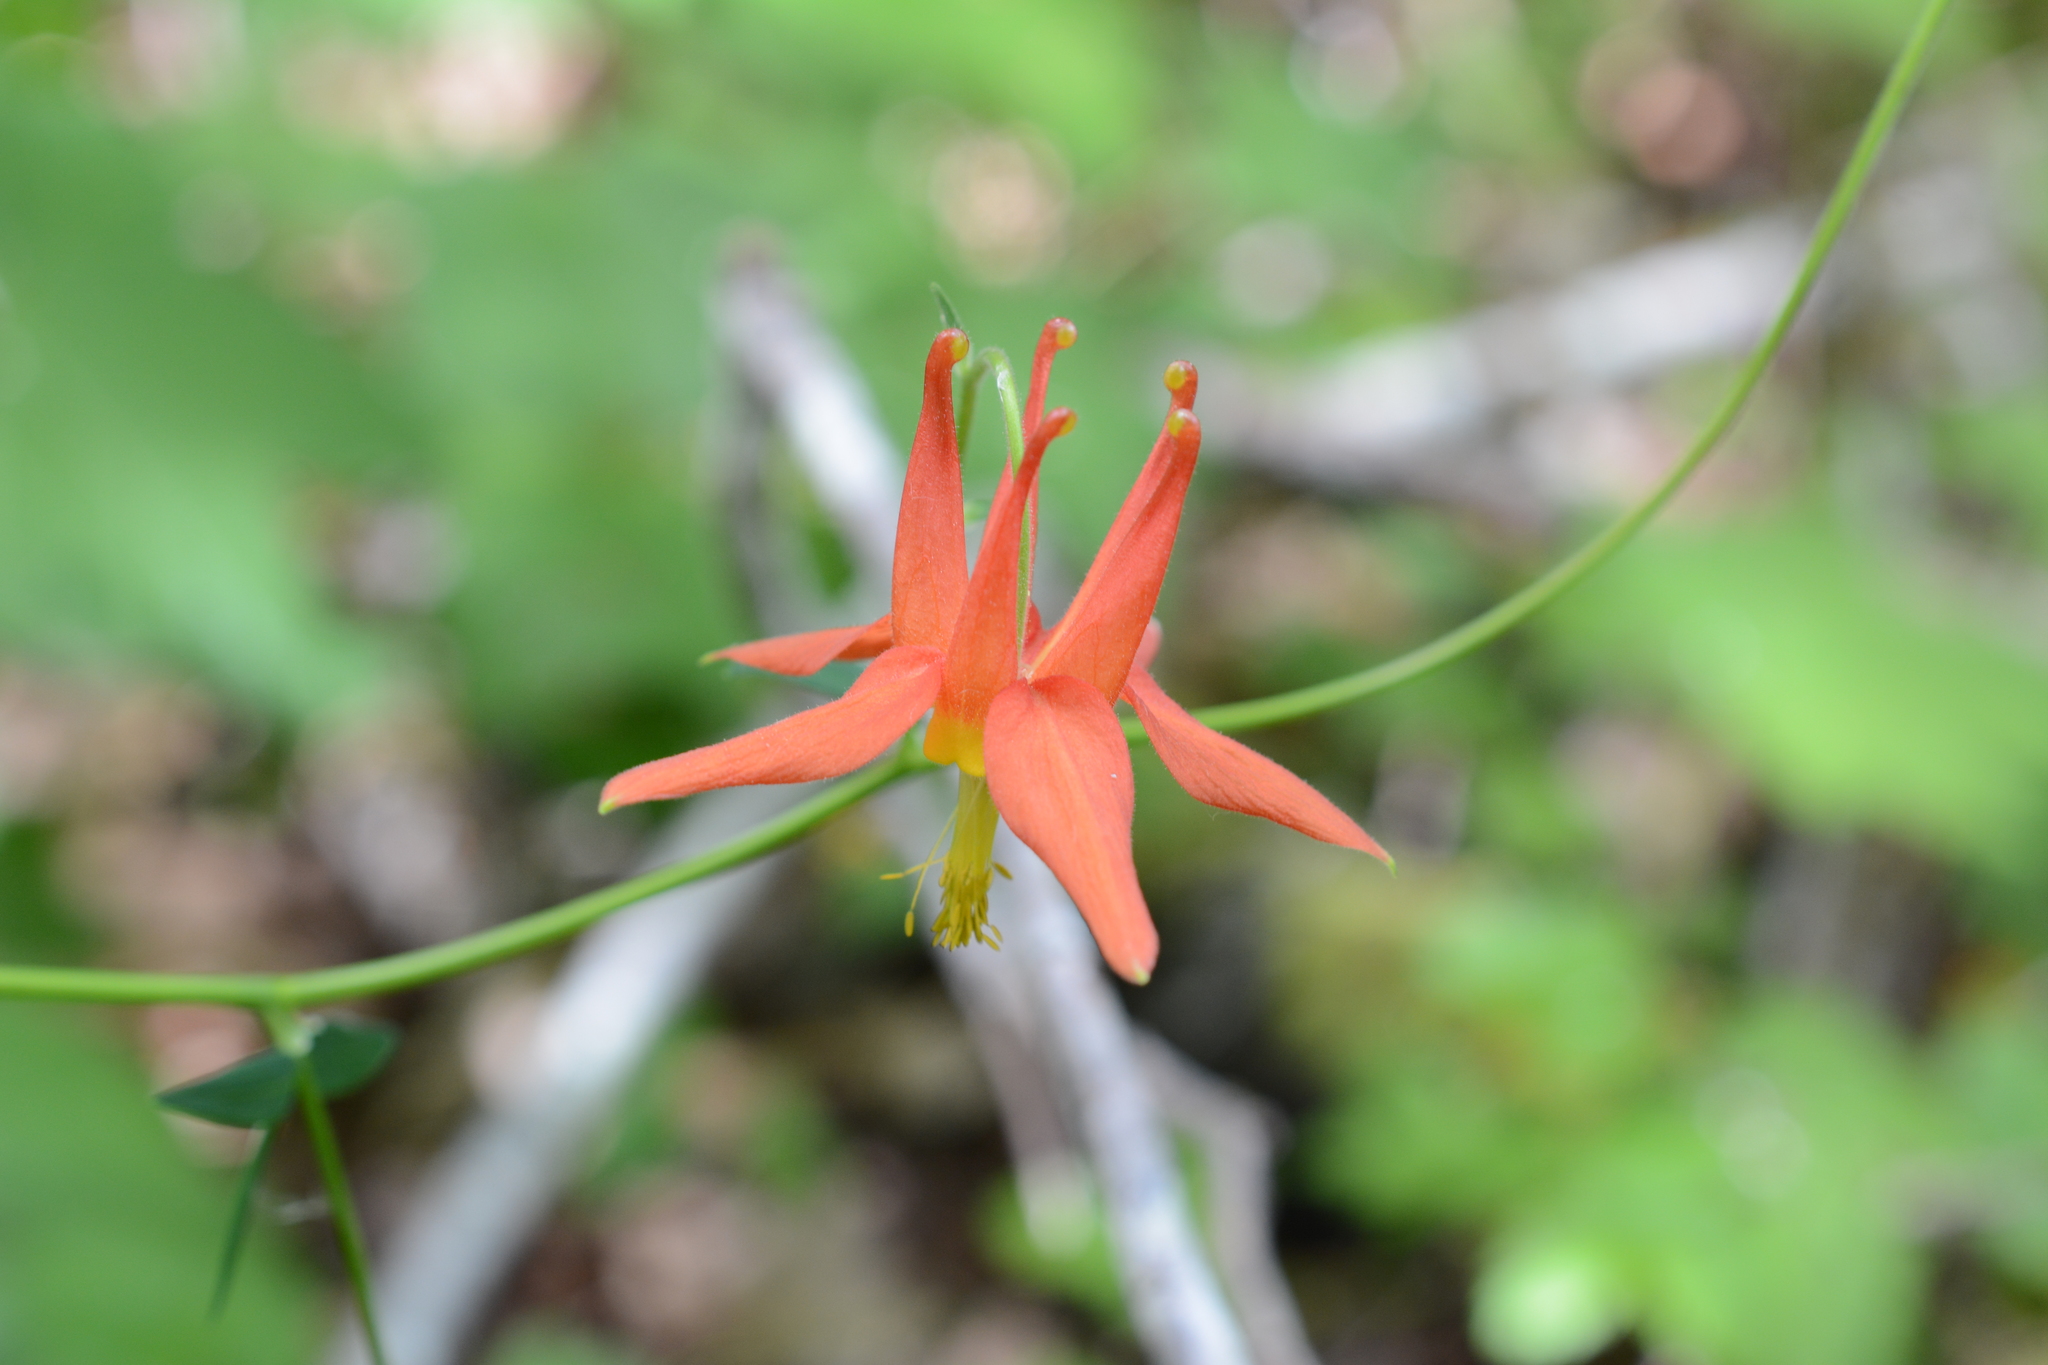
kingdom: Plantae
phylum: Tracheophyta
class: Magnoliopsida
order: Ranunculales
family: Ranunculaceae
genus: Aquilegia
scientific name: Aquilegia formosa
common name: Sitka columbine
